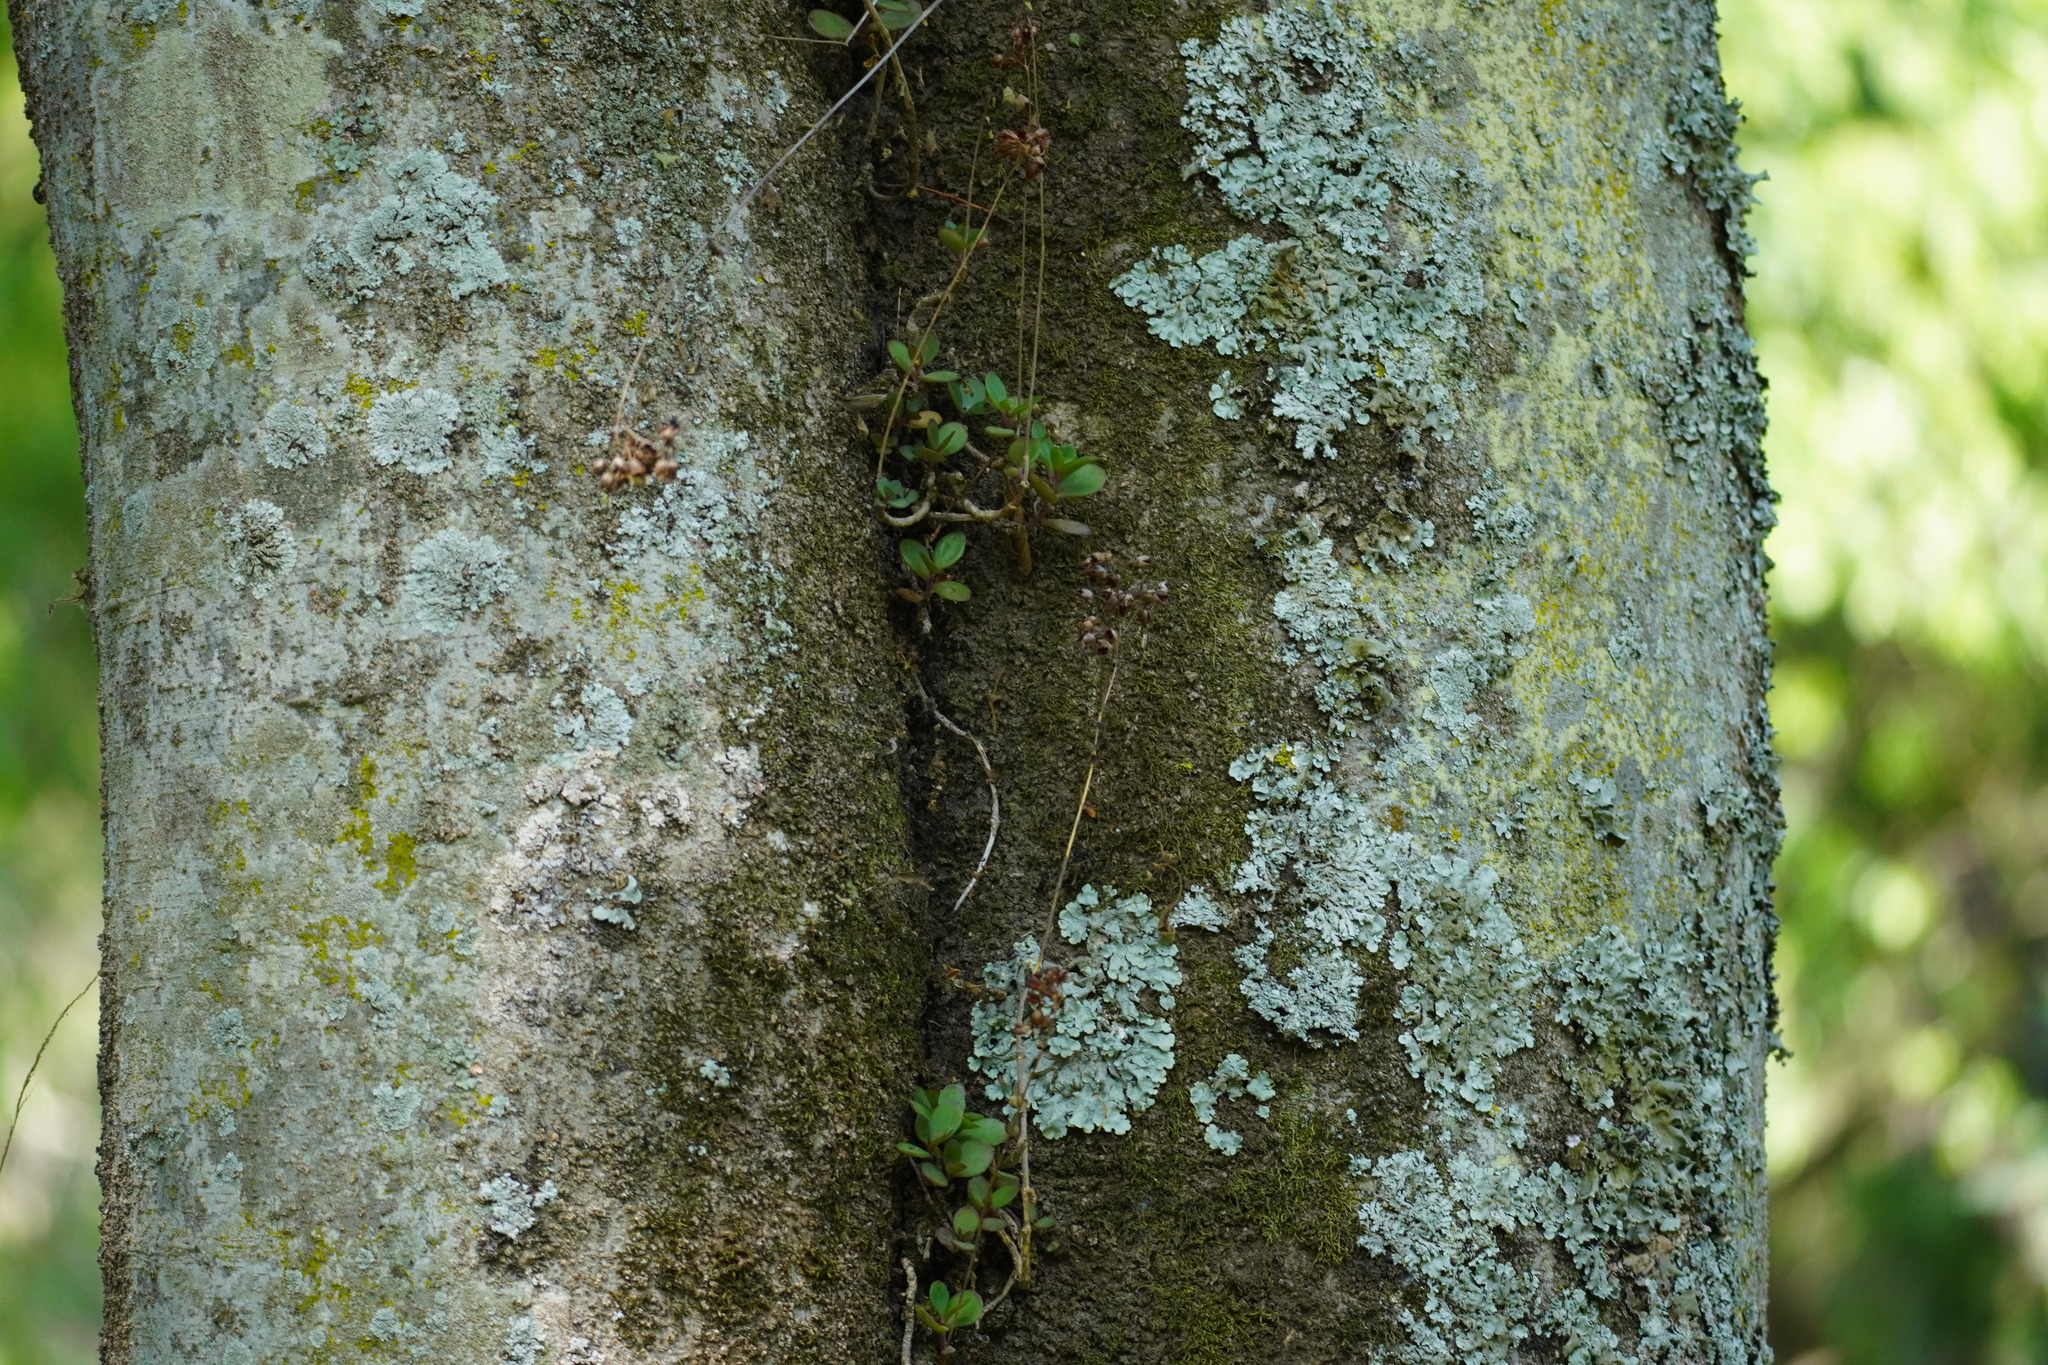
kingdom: Plantae
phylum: Tracheophyta
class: Magnoliopsida
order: Saxifragales
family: Crassulaceae
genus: Kalanchoe
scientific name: Kalanchoe rotundifolia
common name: Common kalanchoe
